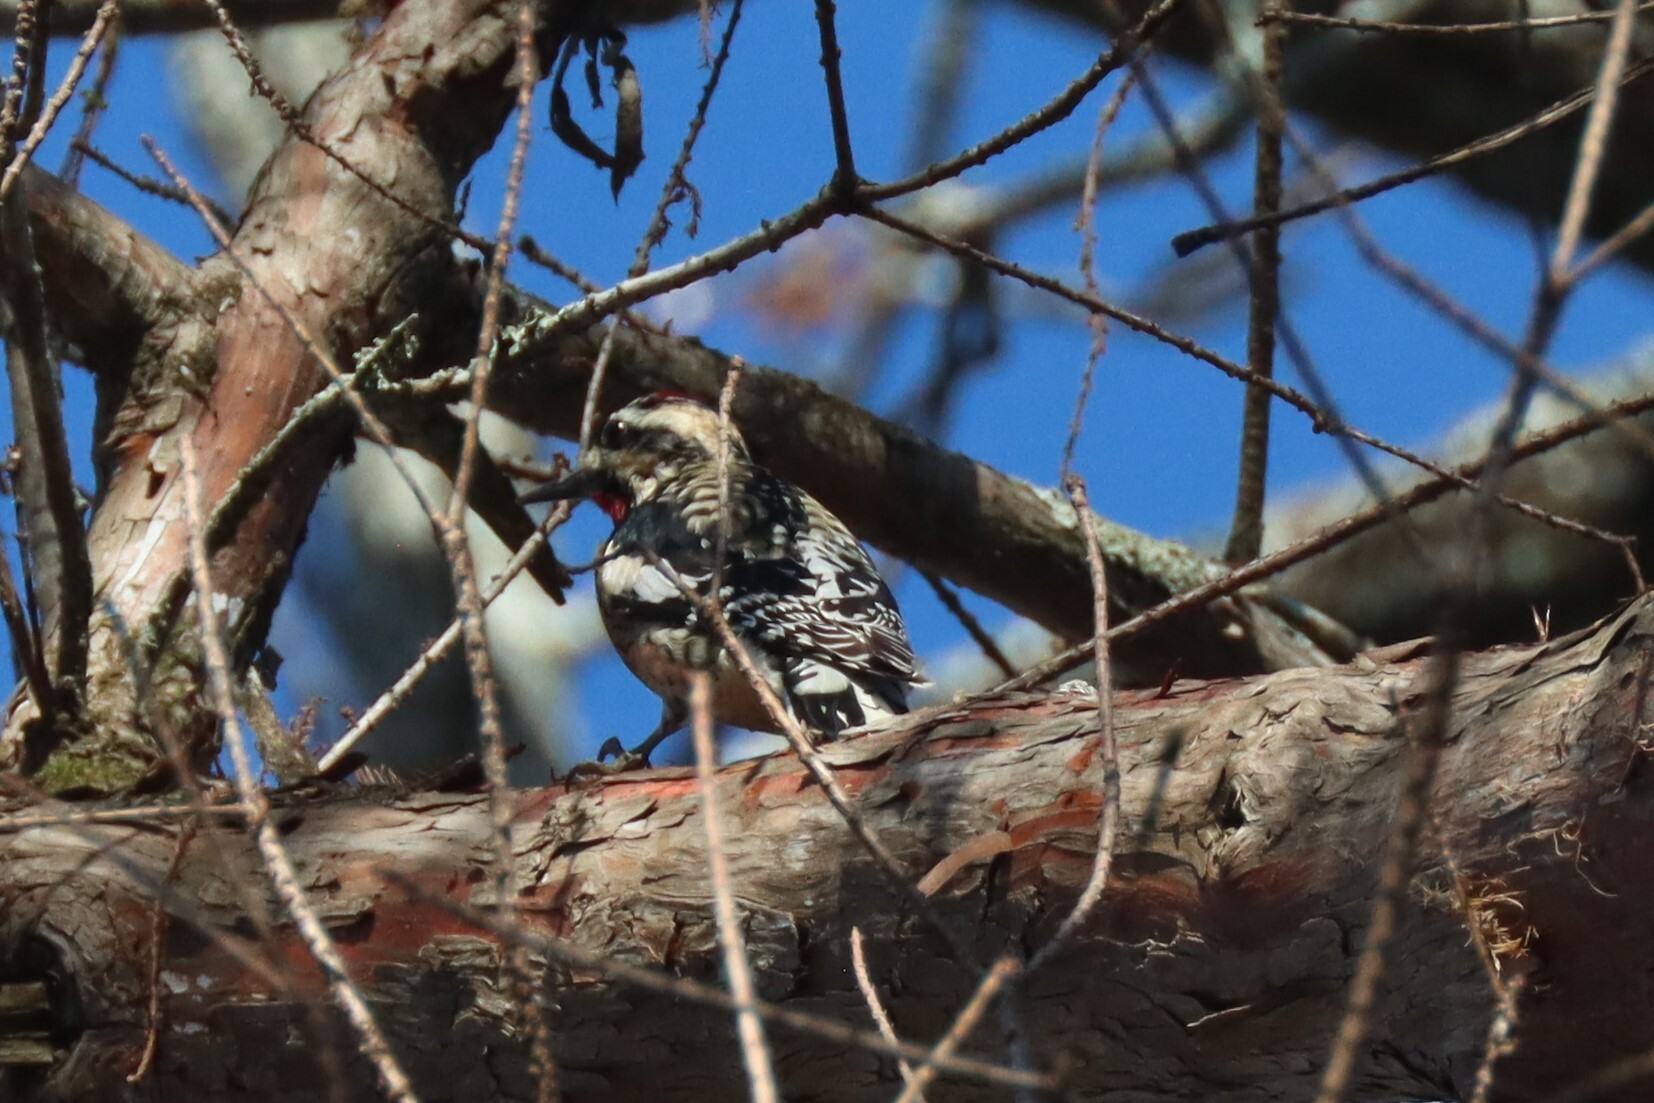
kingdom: Animalia
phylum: Chordata
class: Aves
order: Piciformes
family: Picidae
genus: Sphyrapicus
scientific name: Sphyrapicus varius
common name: Yellow-bellied sapsucker
